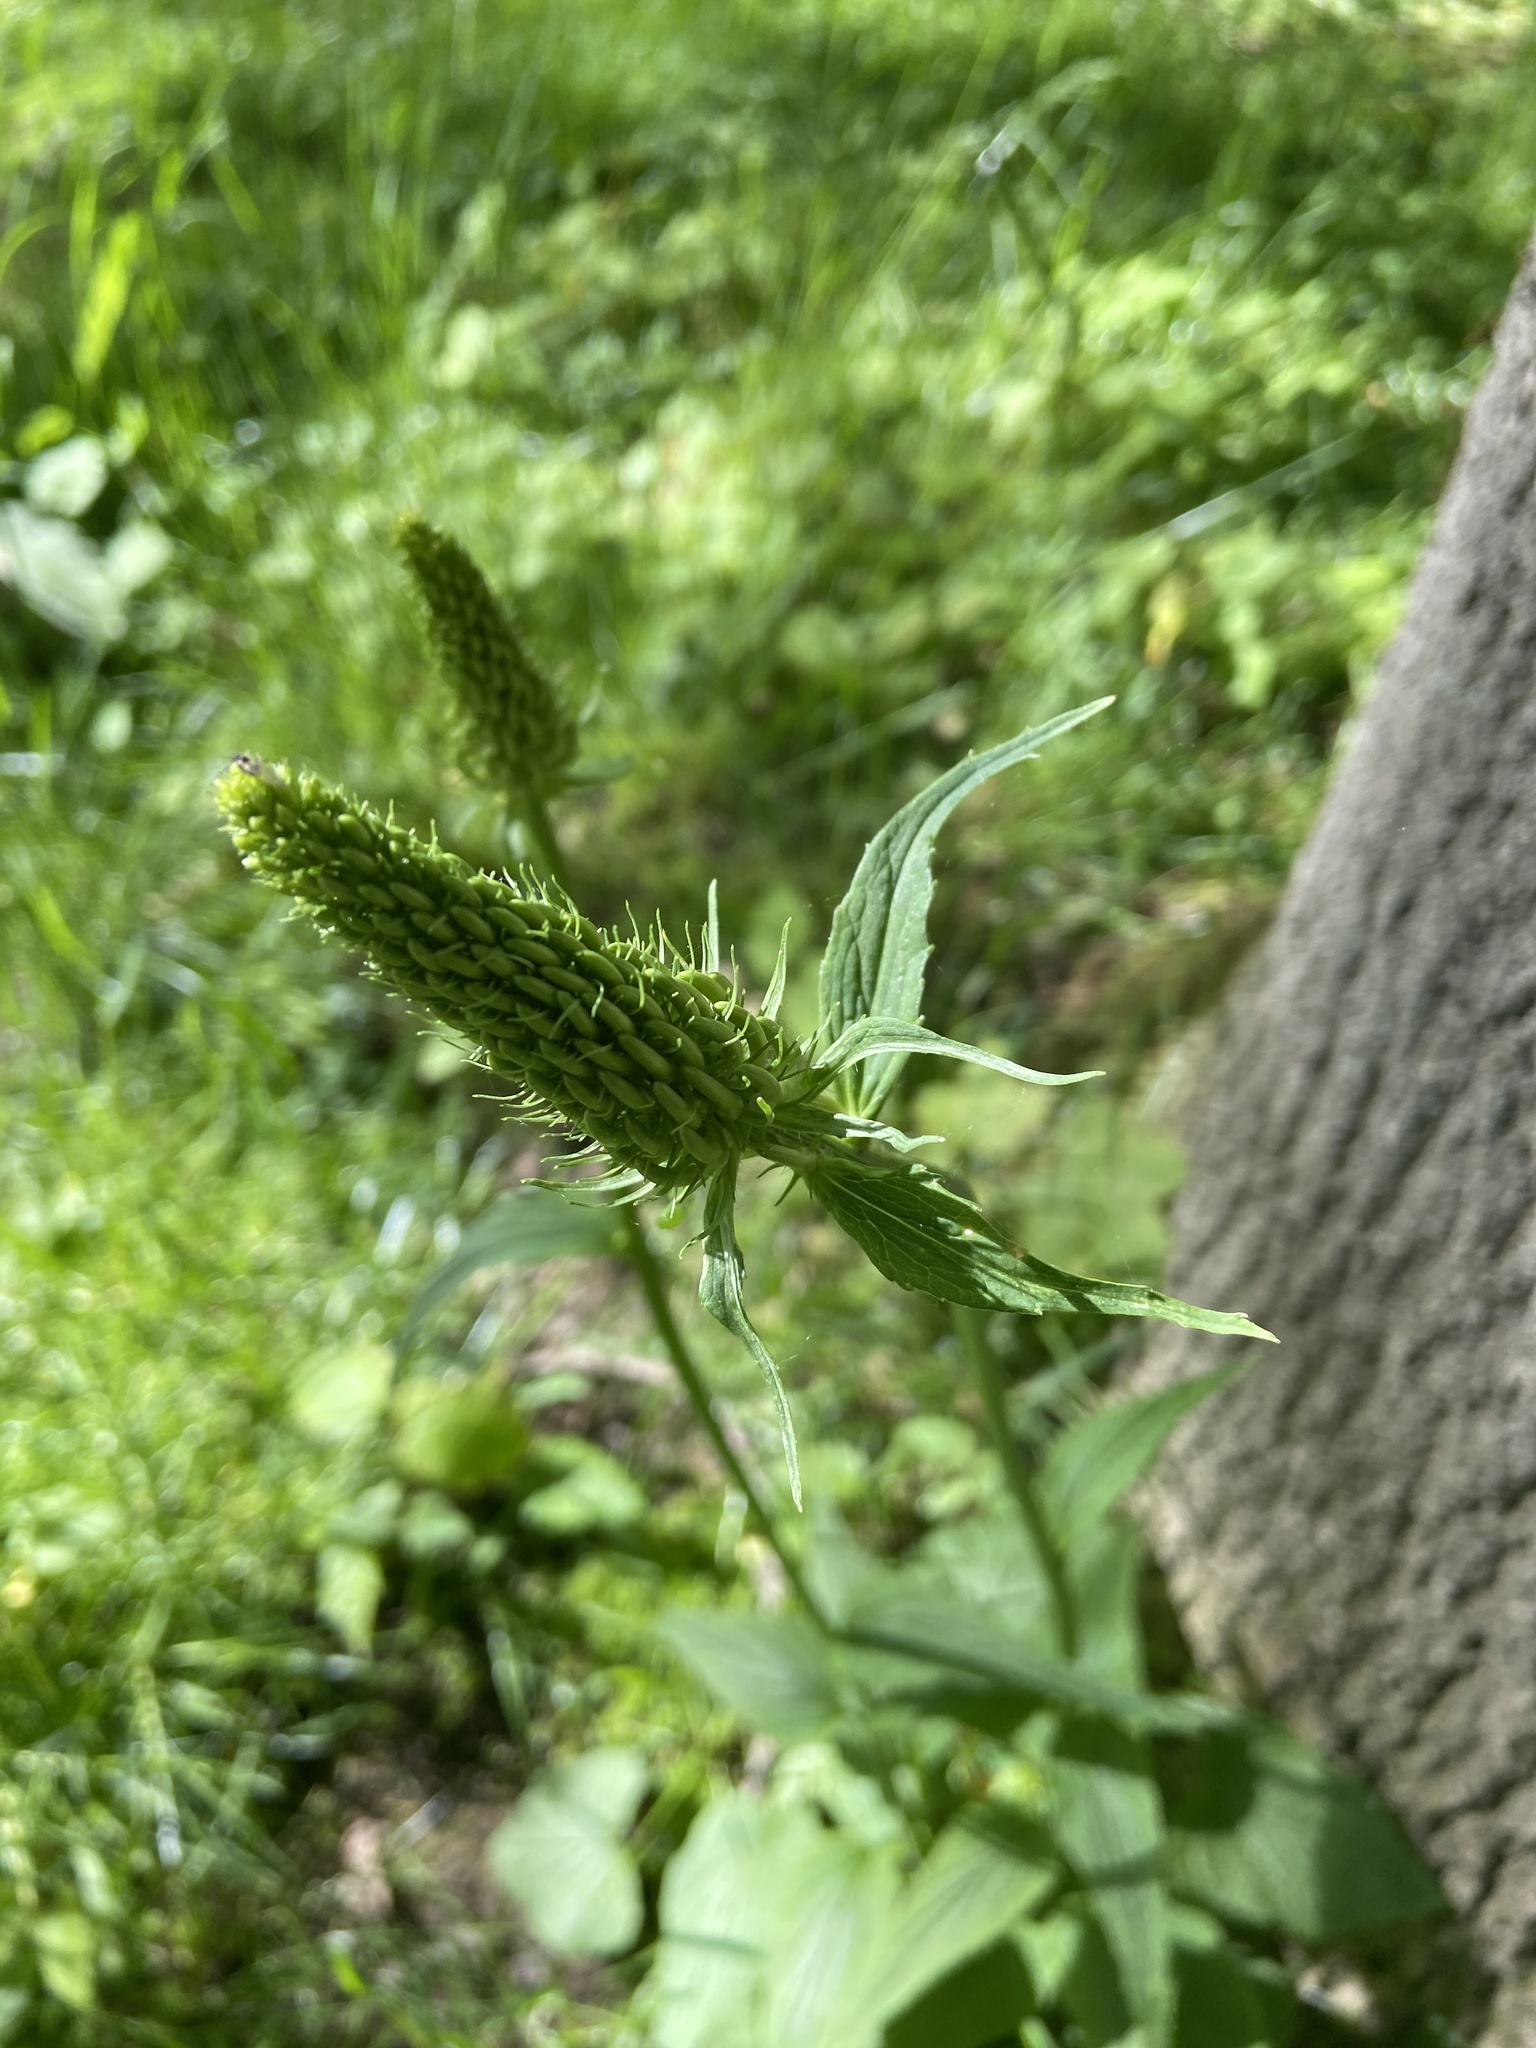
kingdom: Plantae
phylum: Tracheophyta
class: Magnoliopsida
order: Asterales
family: Campanulaceae
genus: Phyteuma
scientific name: Phyteuma spicatum
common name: Spiked rampion
